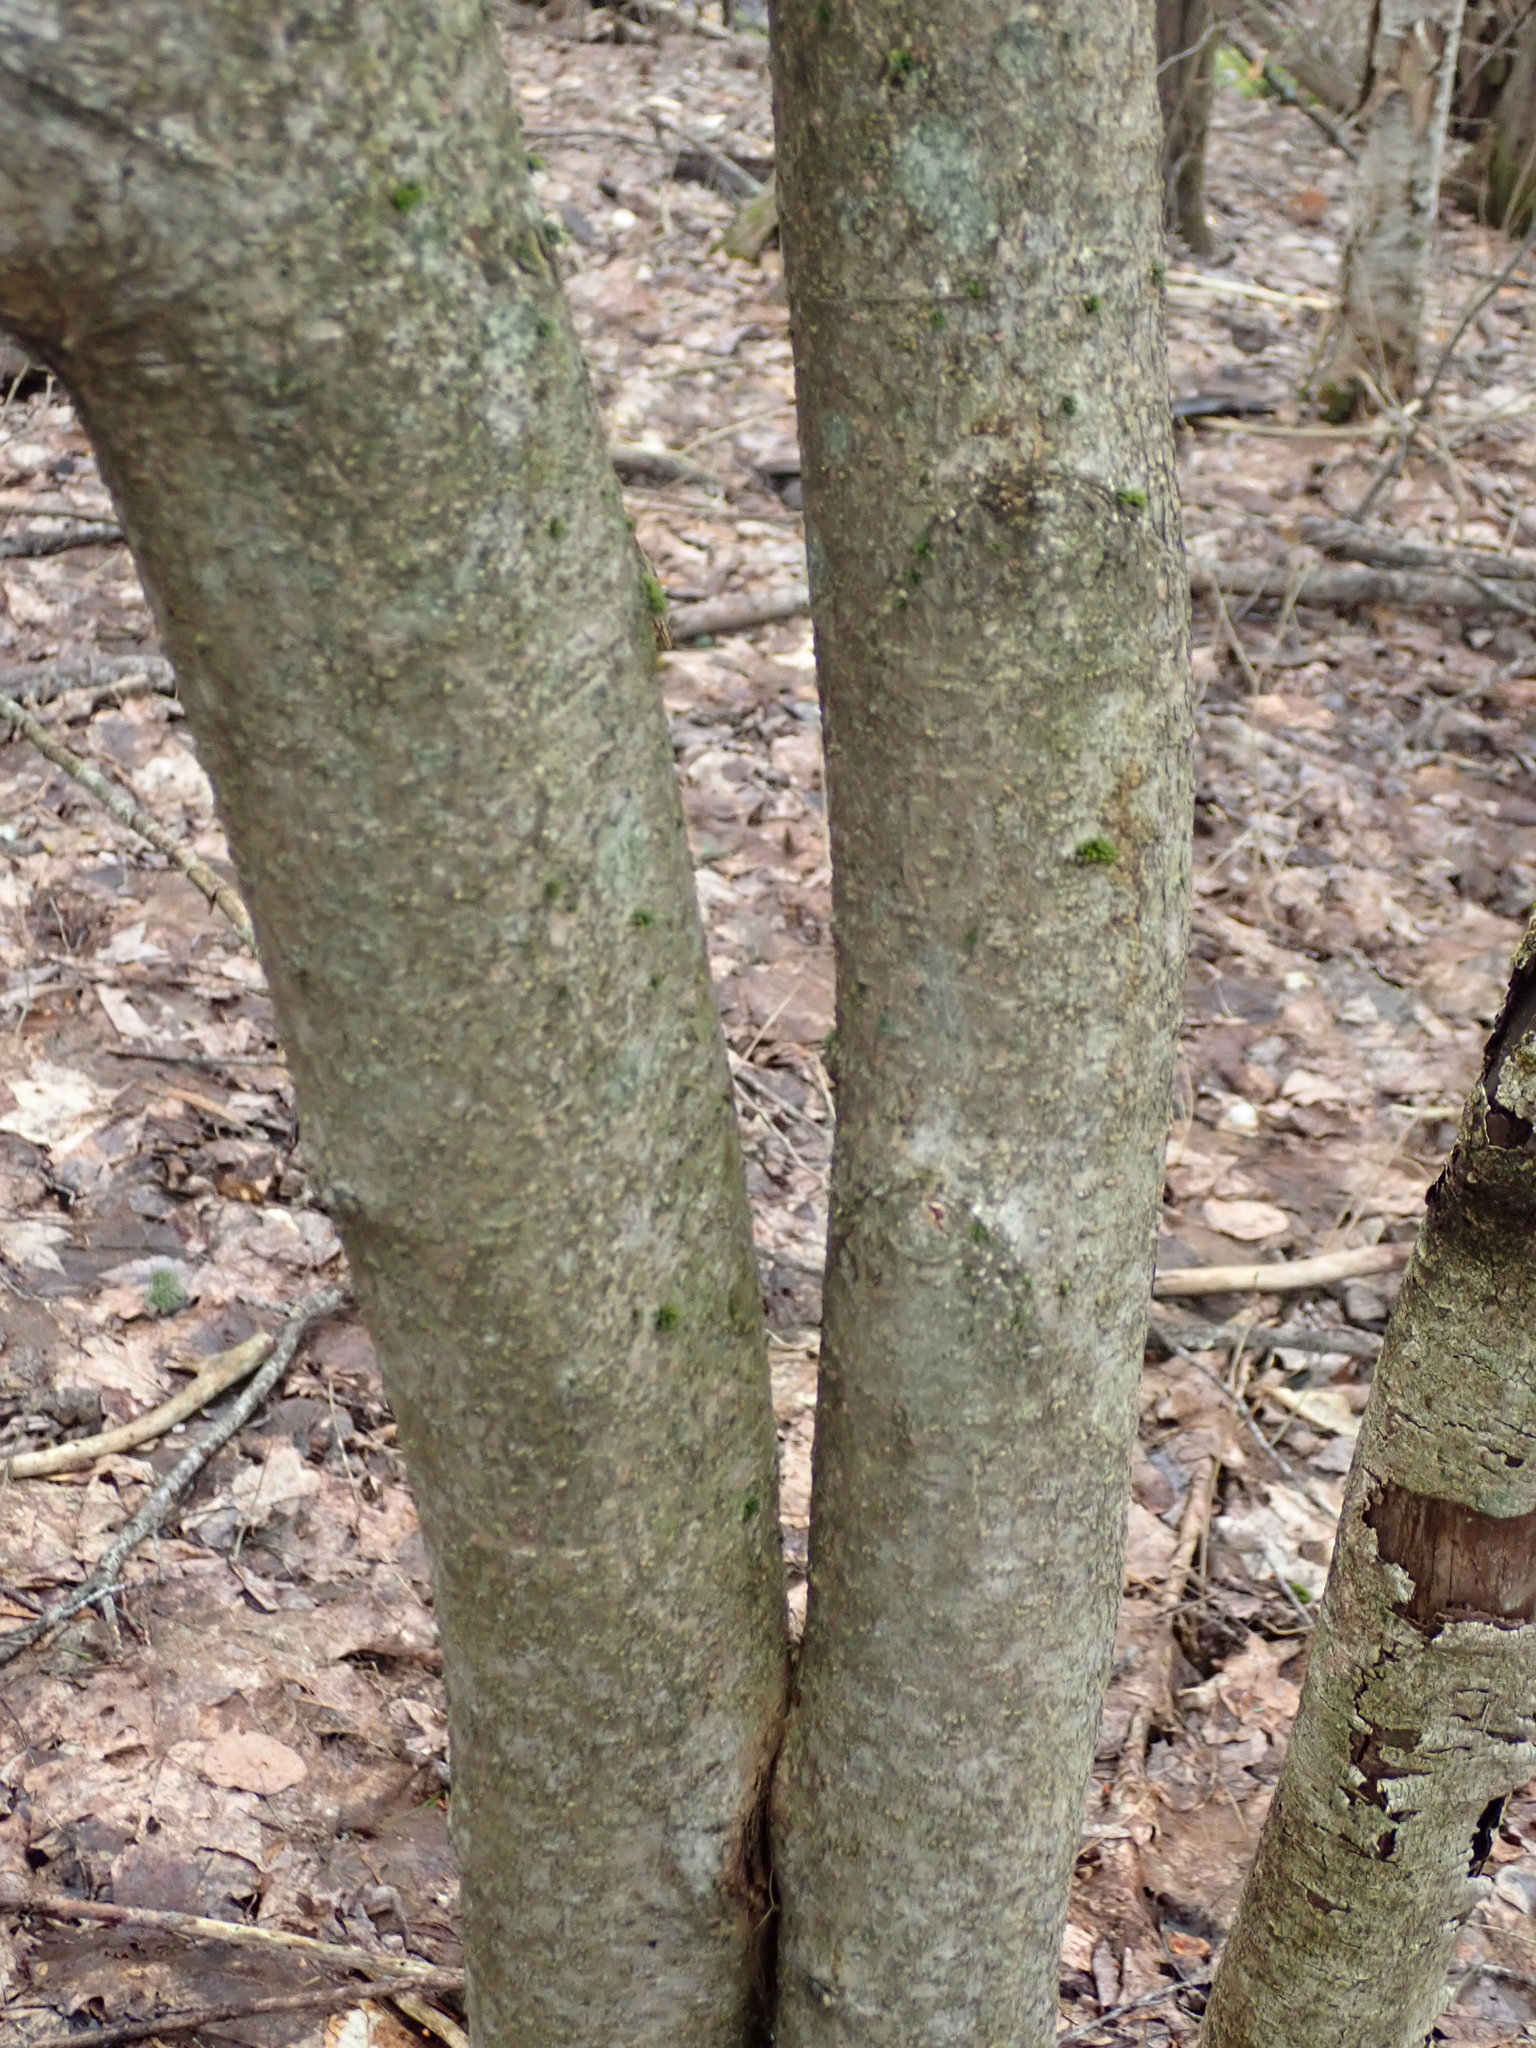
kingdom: Plantae
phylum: Tracheophyta
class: Magnoliopsida
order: Saxifragales
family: Hamamelidaceae
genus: Hamamelis
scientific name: Hamamelis virginiana
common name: Witch-hazel
